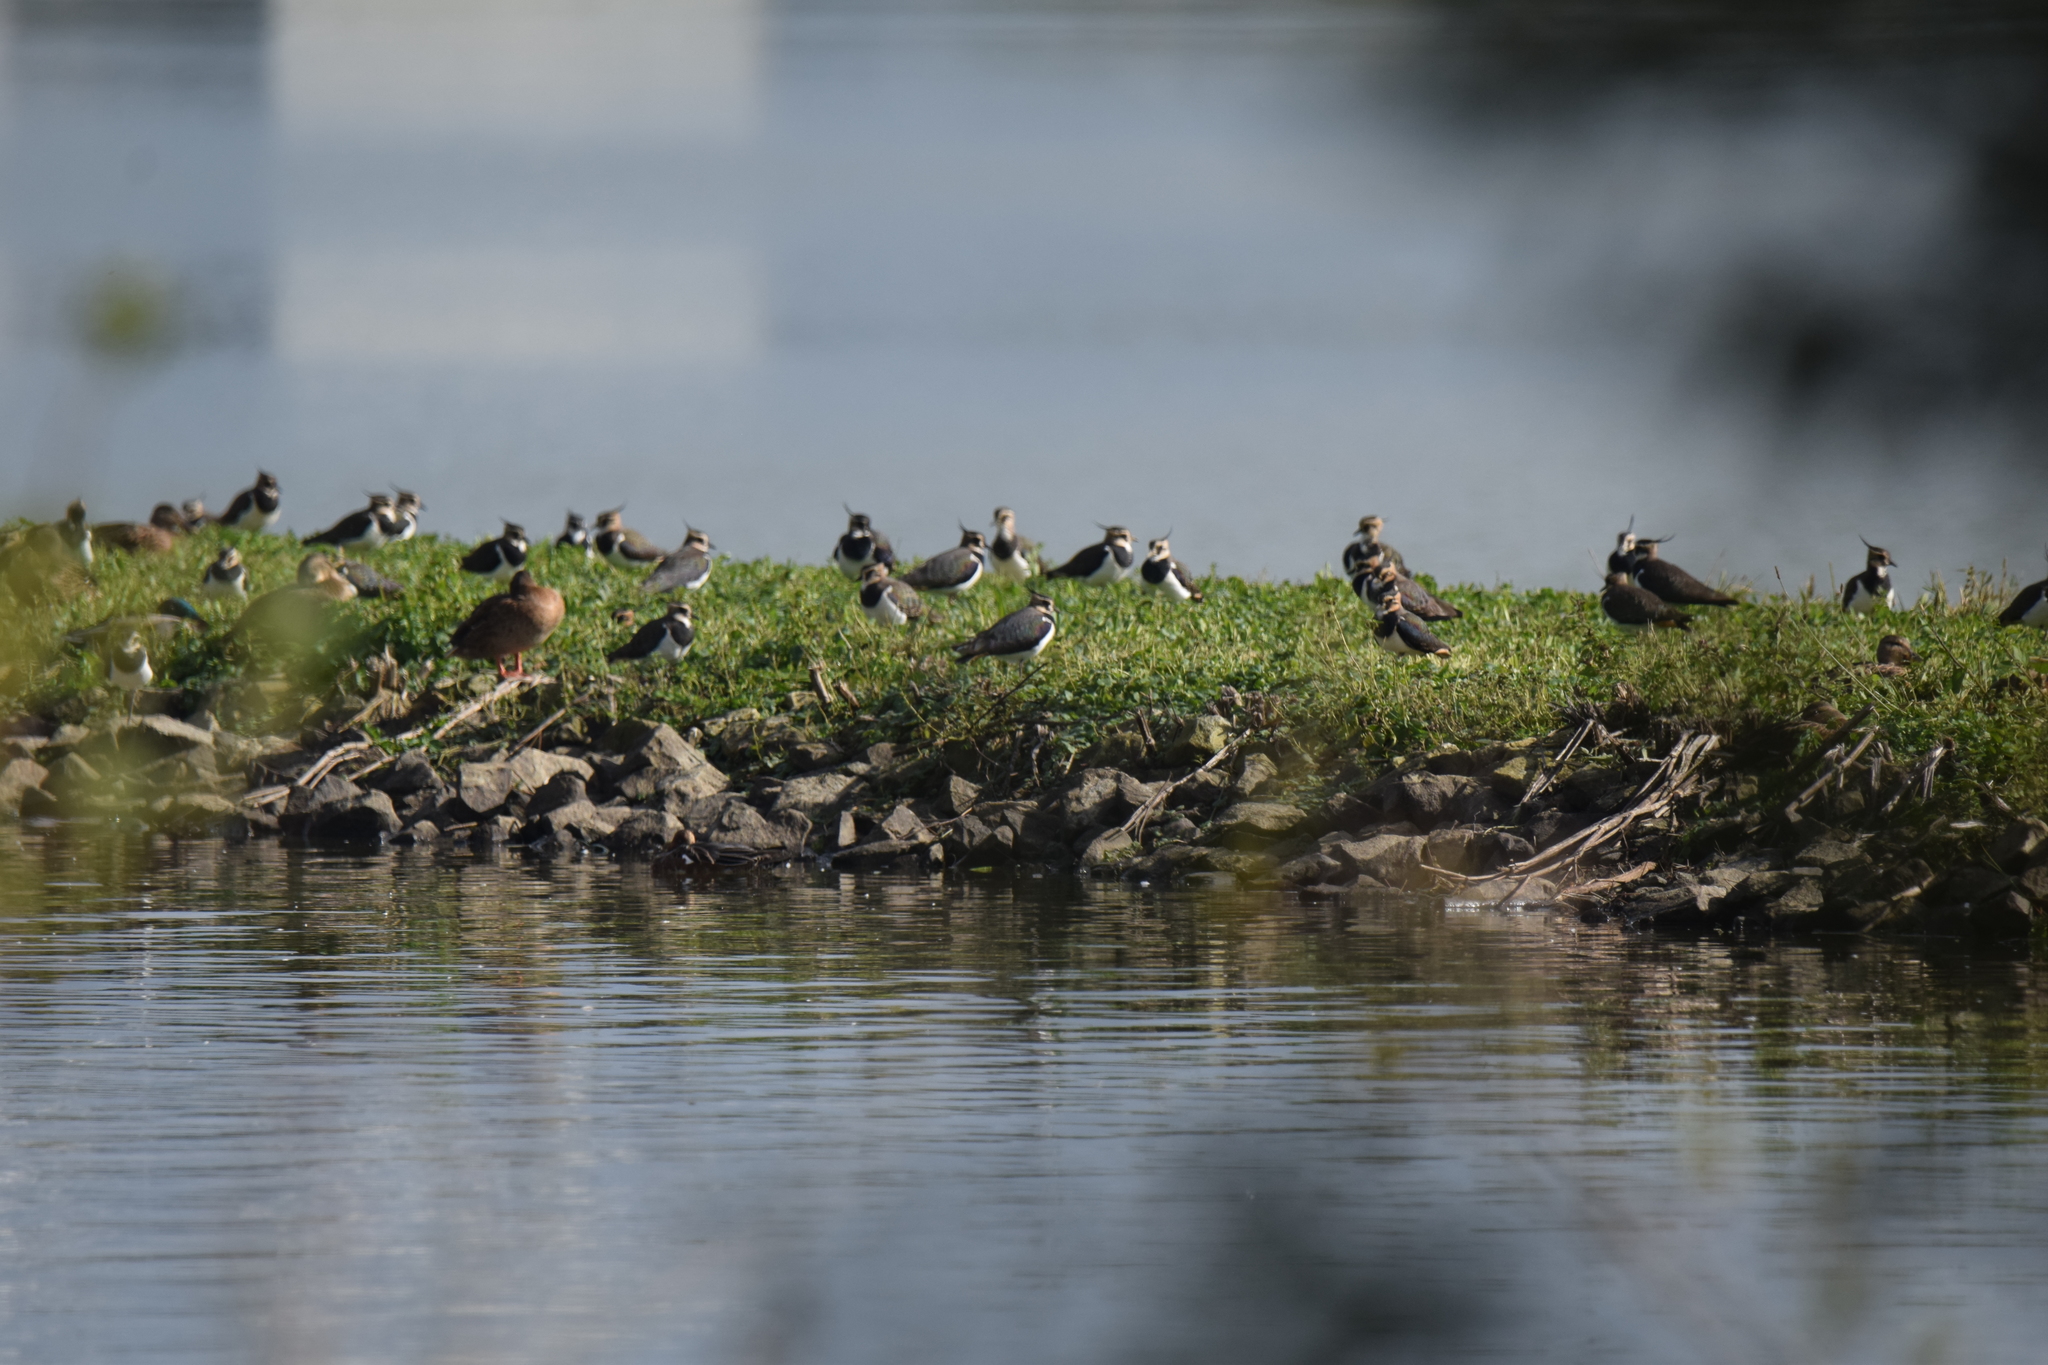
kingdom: Animalia
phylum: Chordata
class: Aves
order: Charadriiformes
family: Charadriidae
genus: Vanellus
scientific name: Vanellus vanellus
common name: Northern lapwing
